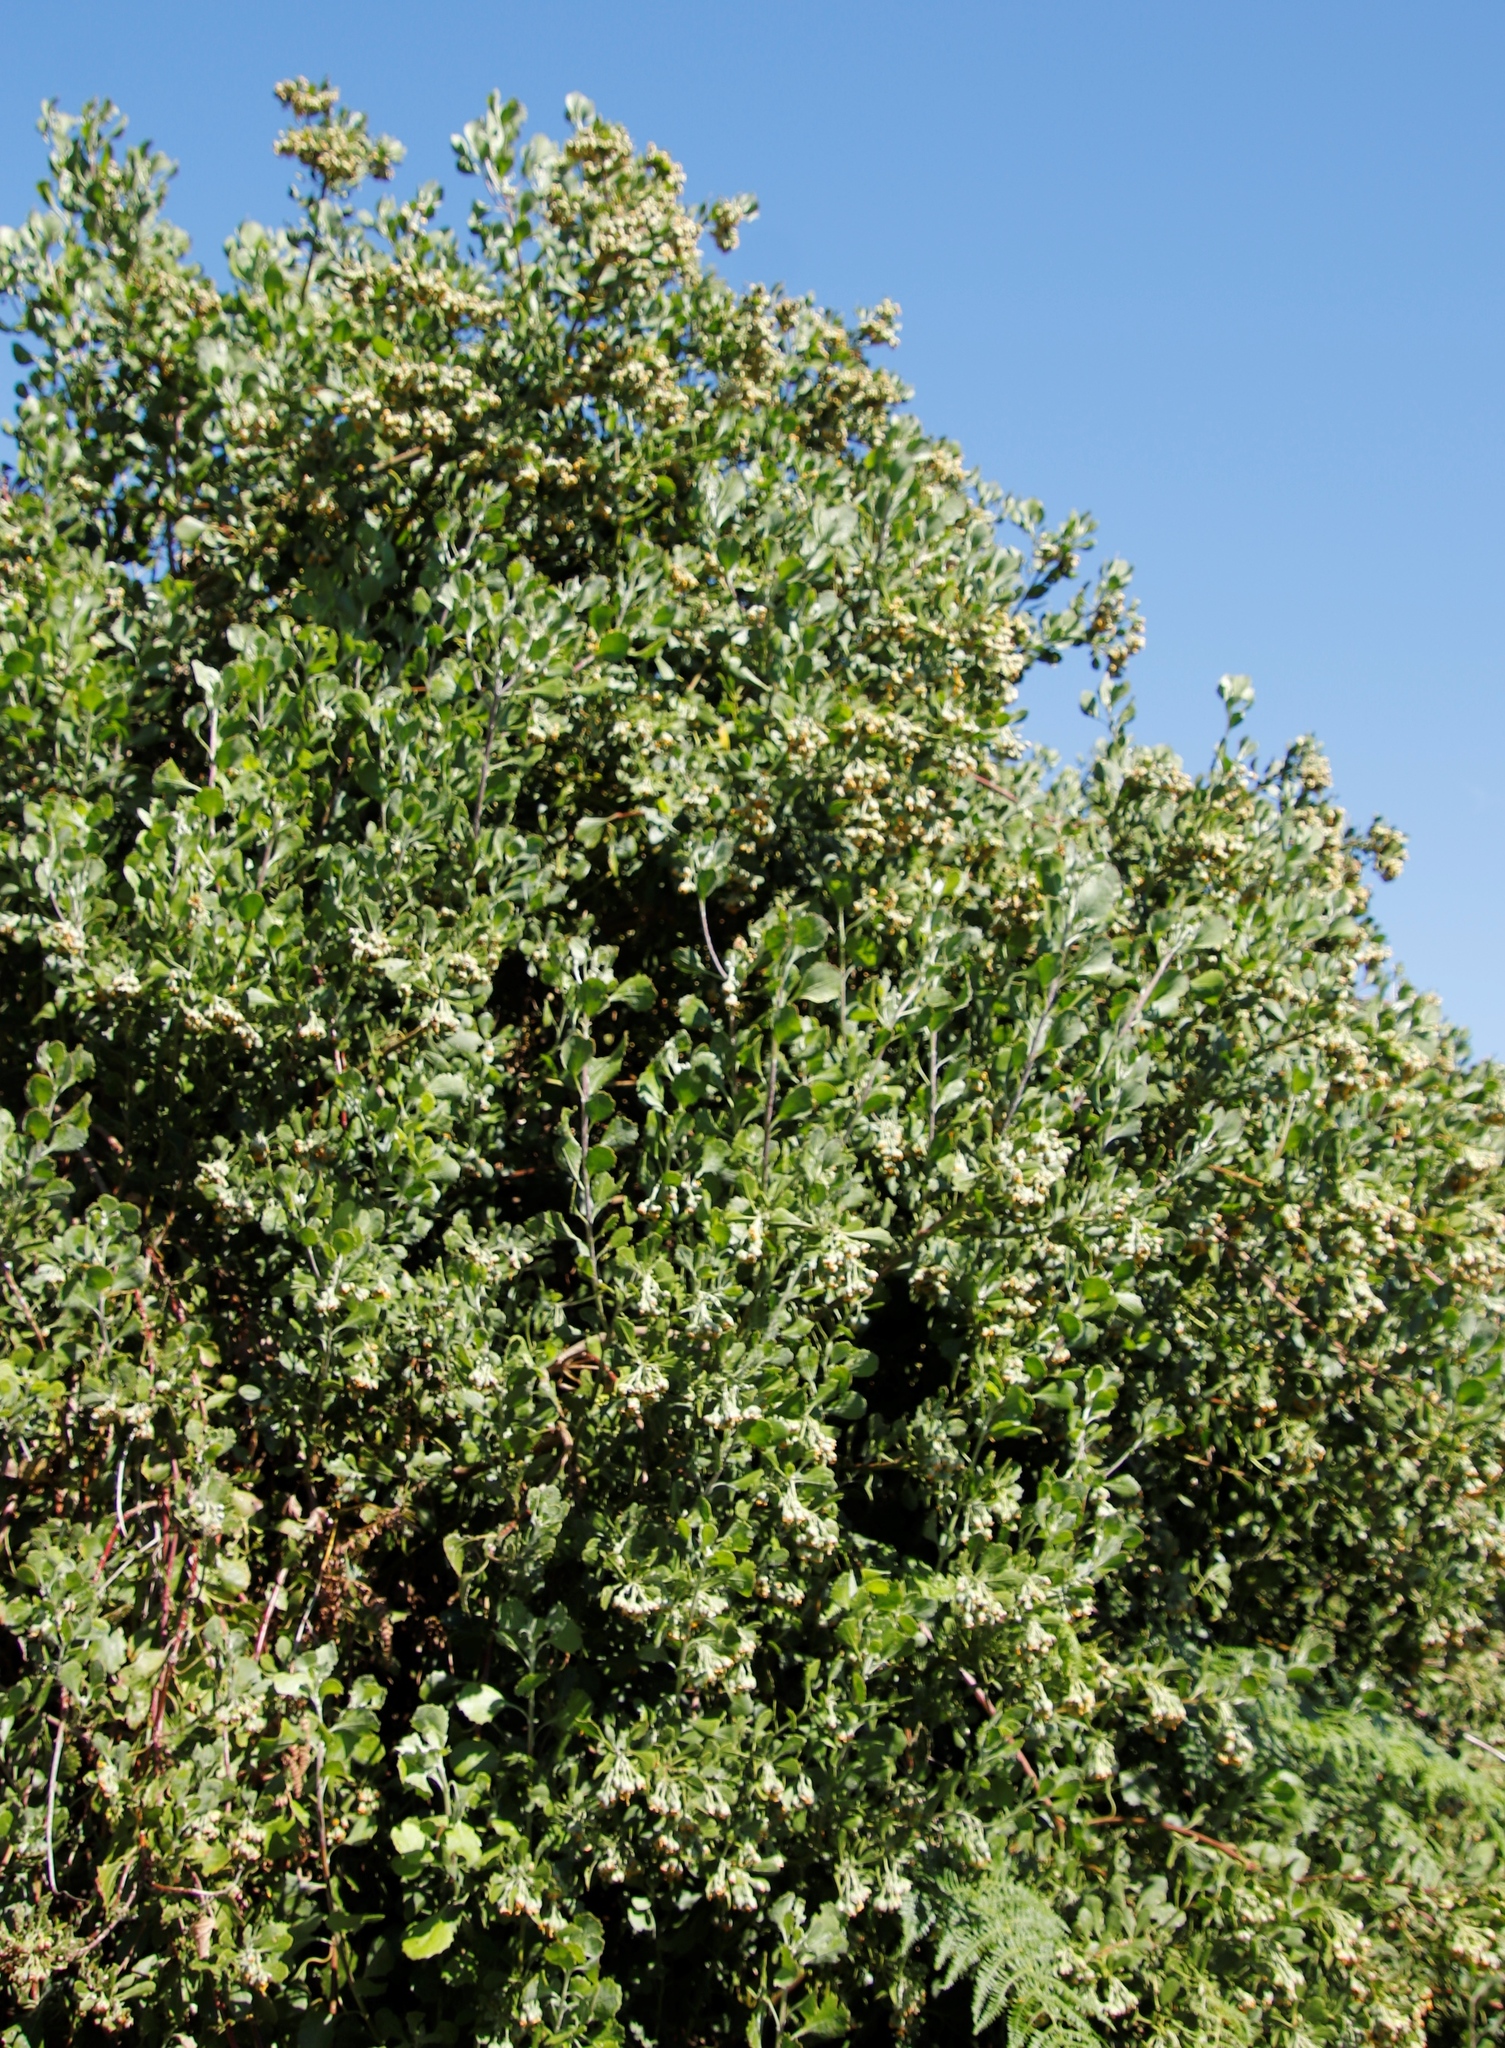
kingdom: Plantae
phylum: Tracheophyta
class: Magnoliopsida
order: Asterales
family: Asteraceae
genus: Osteospermum
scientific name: Osteospermum moniliferum
